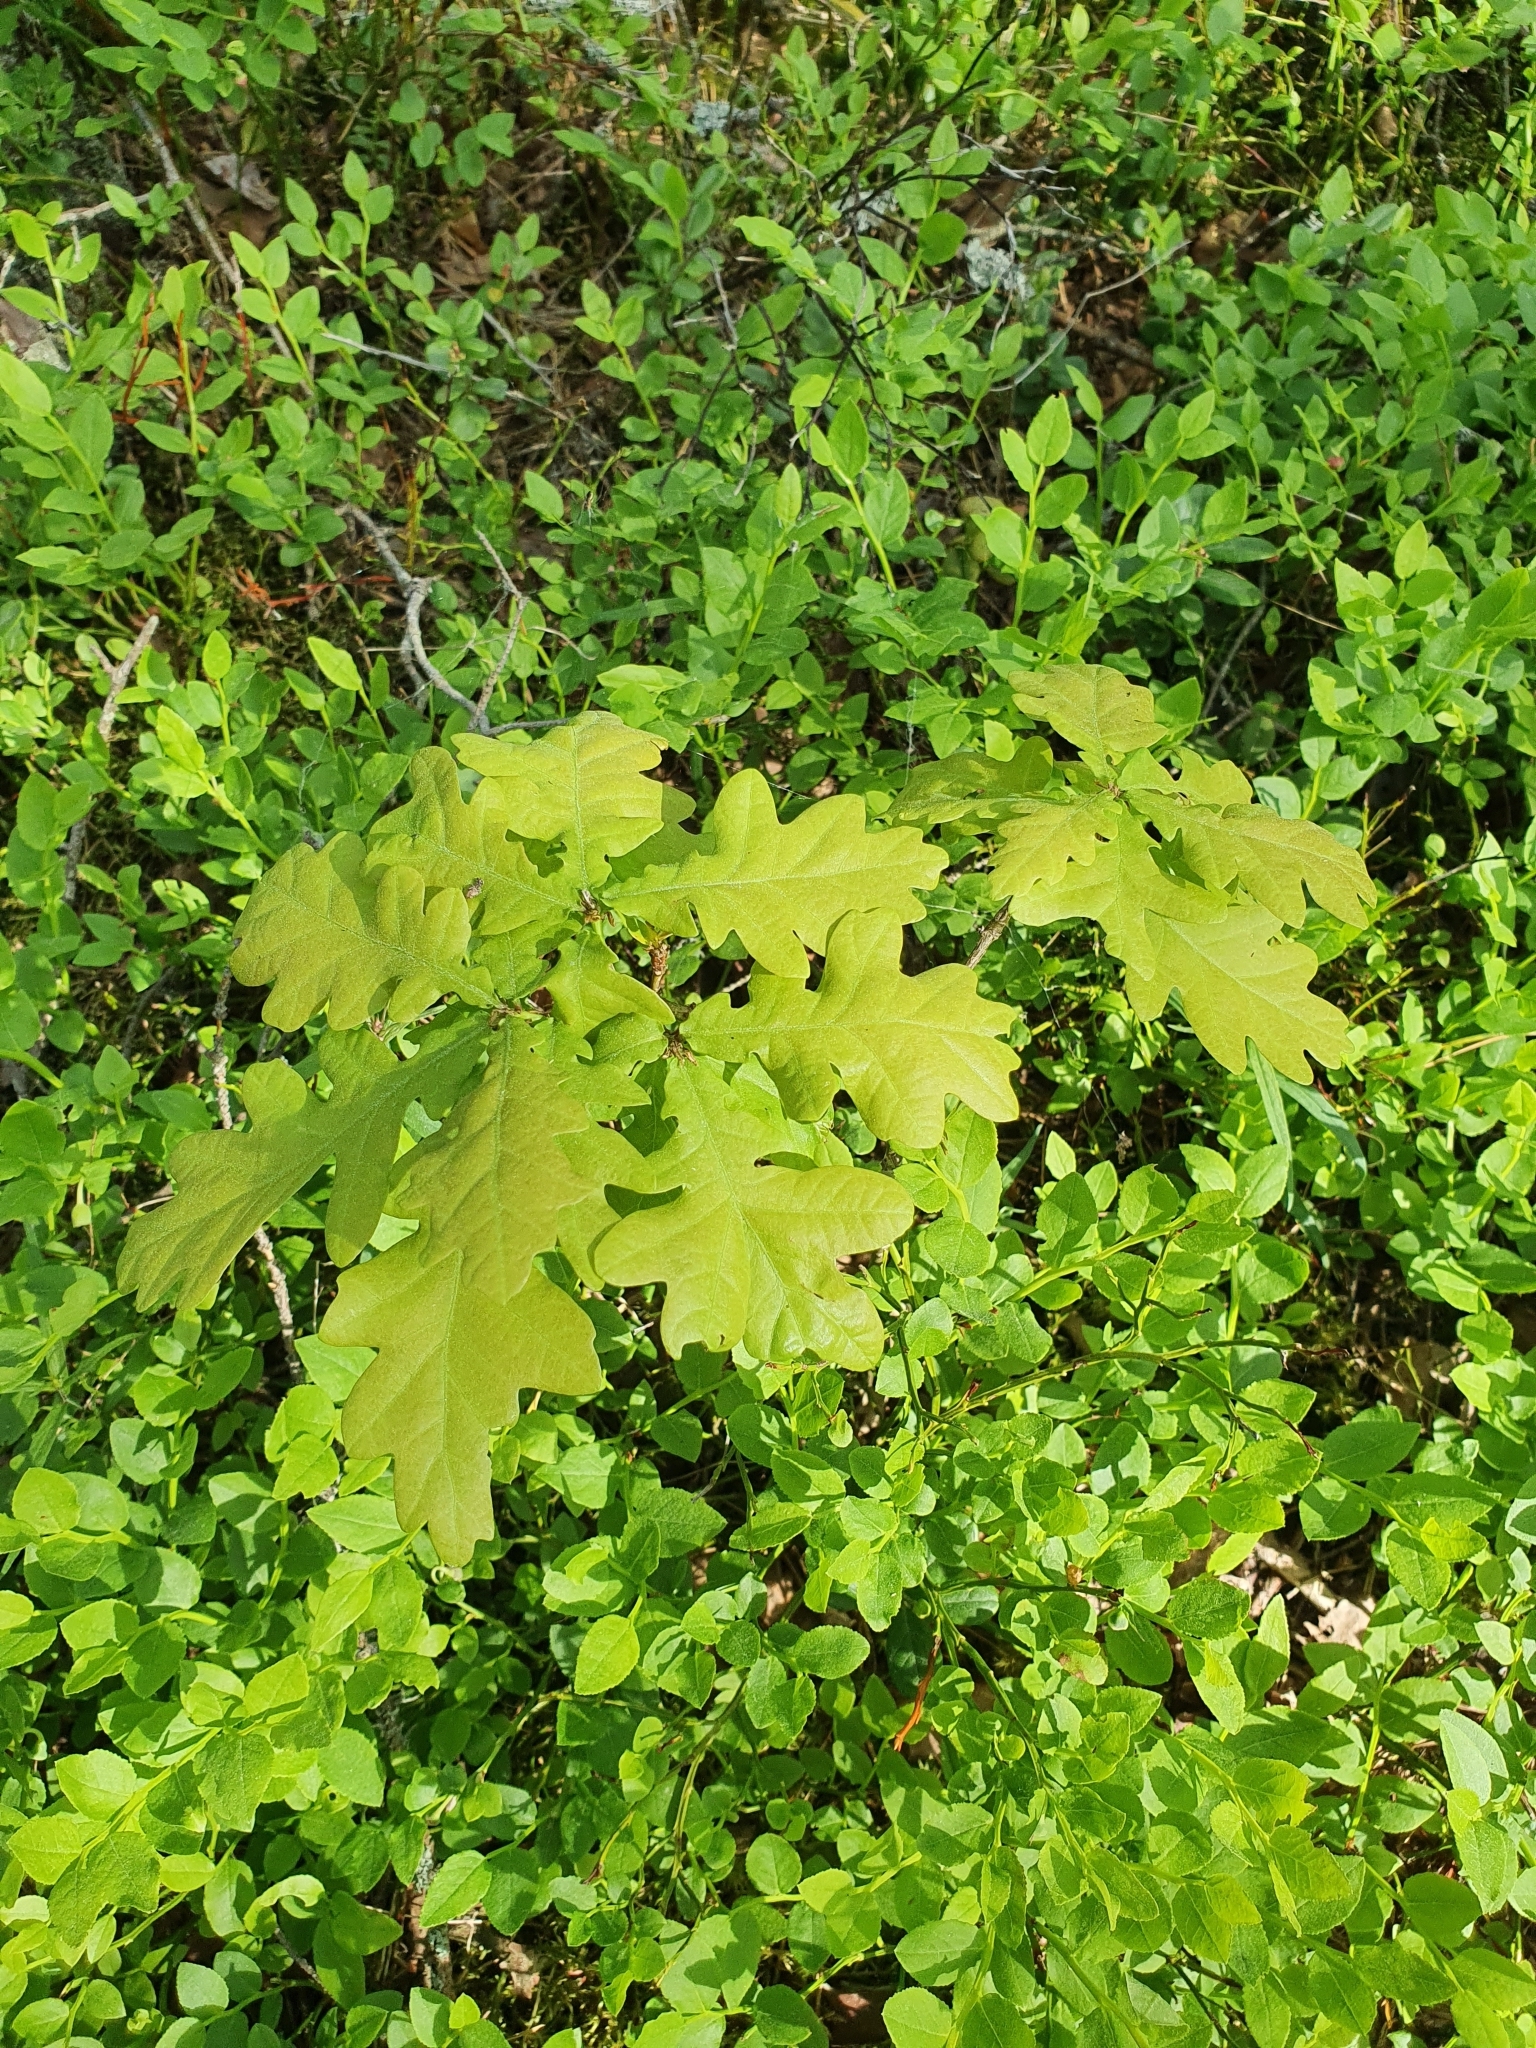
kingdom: Plantae
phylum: Tracheophyta
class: Magnoliopsida
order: Fagales
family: Fagaceae
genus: Quercus
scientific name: Quercus robur
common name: Pedunculate oak
